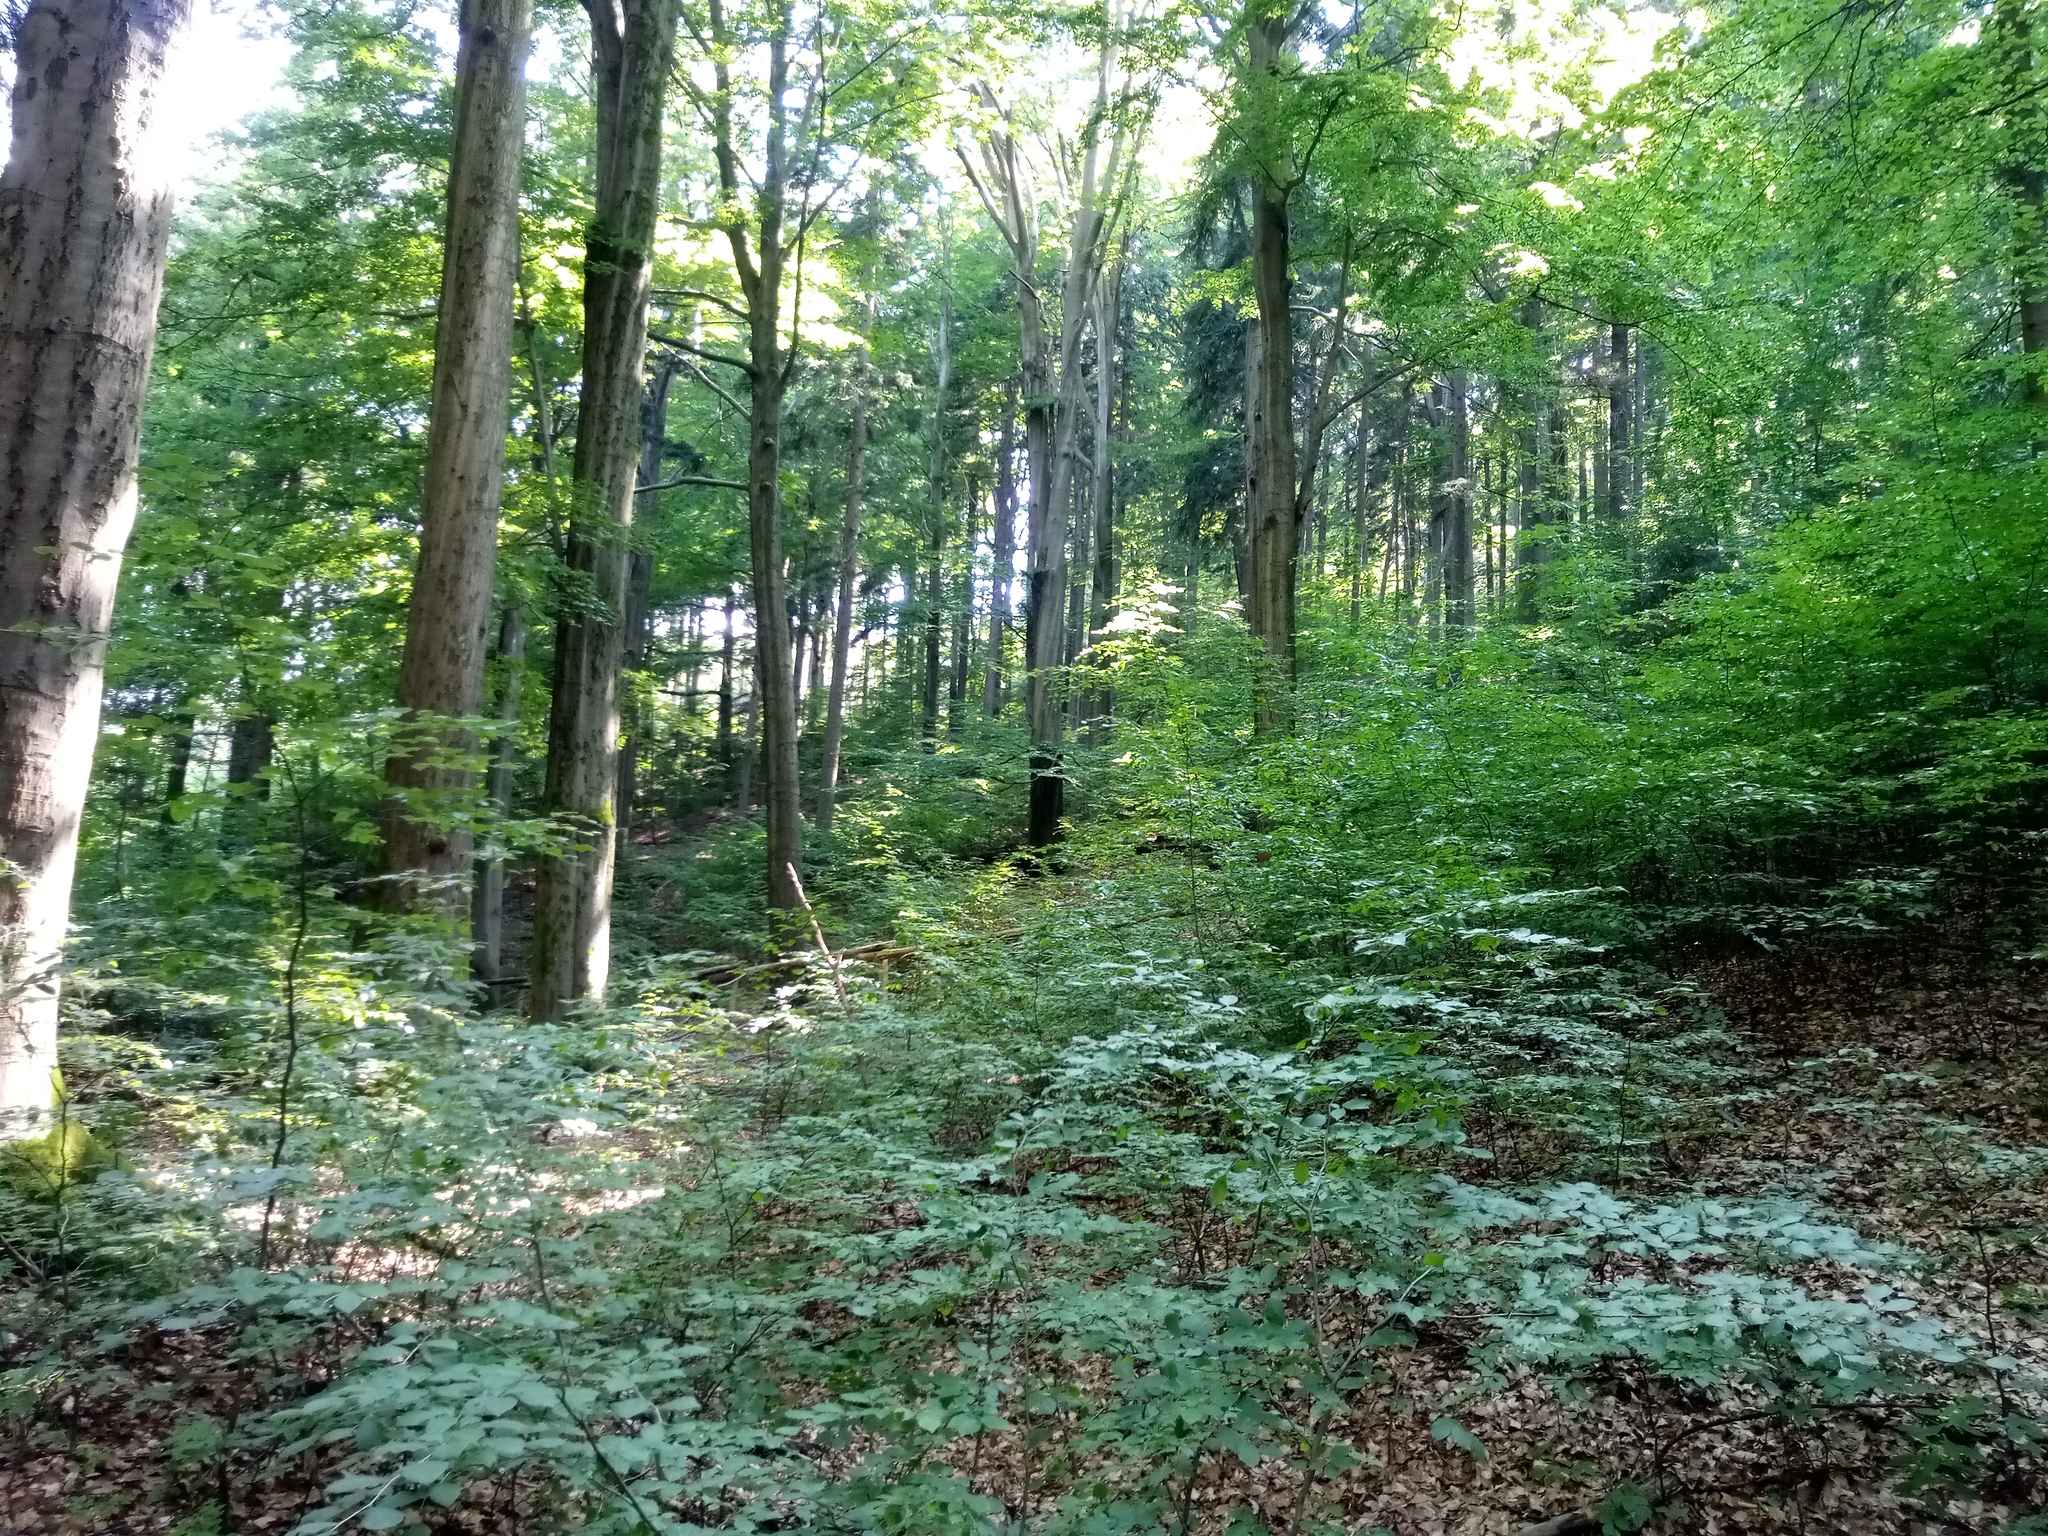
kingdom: Plantae
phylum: Tracheophyta
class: Magnoliopsida
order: Fagales
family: Fagaceae
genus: Fagus
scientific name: Fagus sylvatica
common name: Beech
